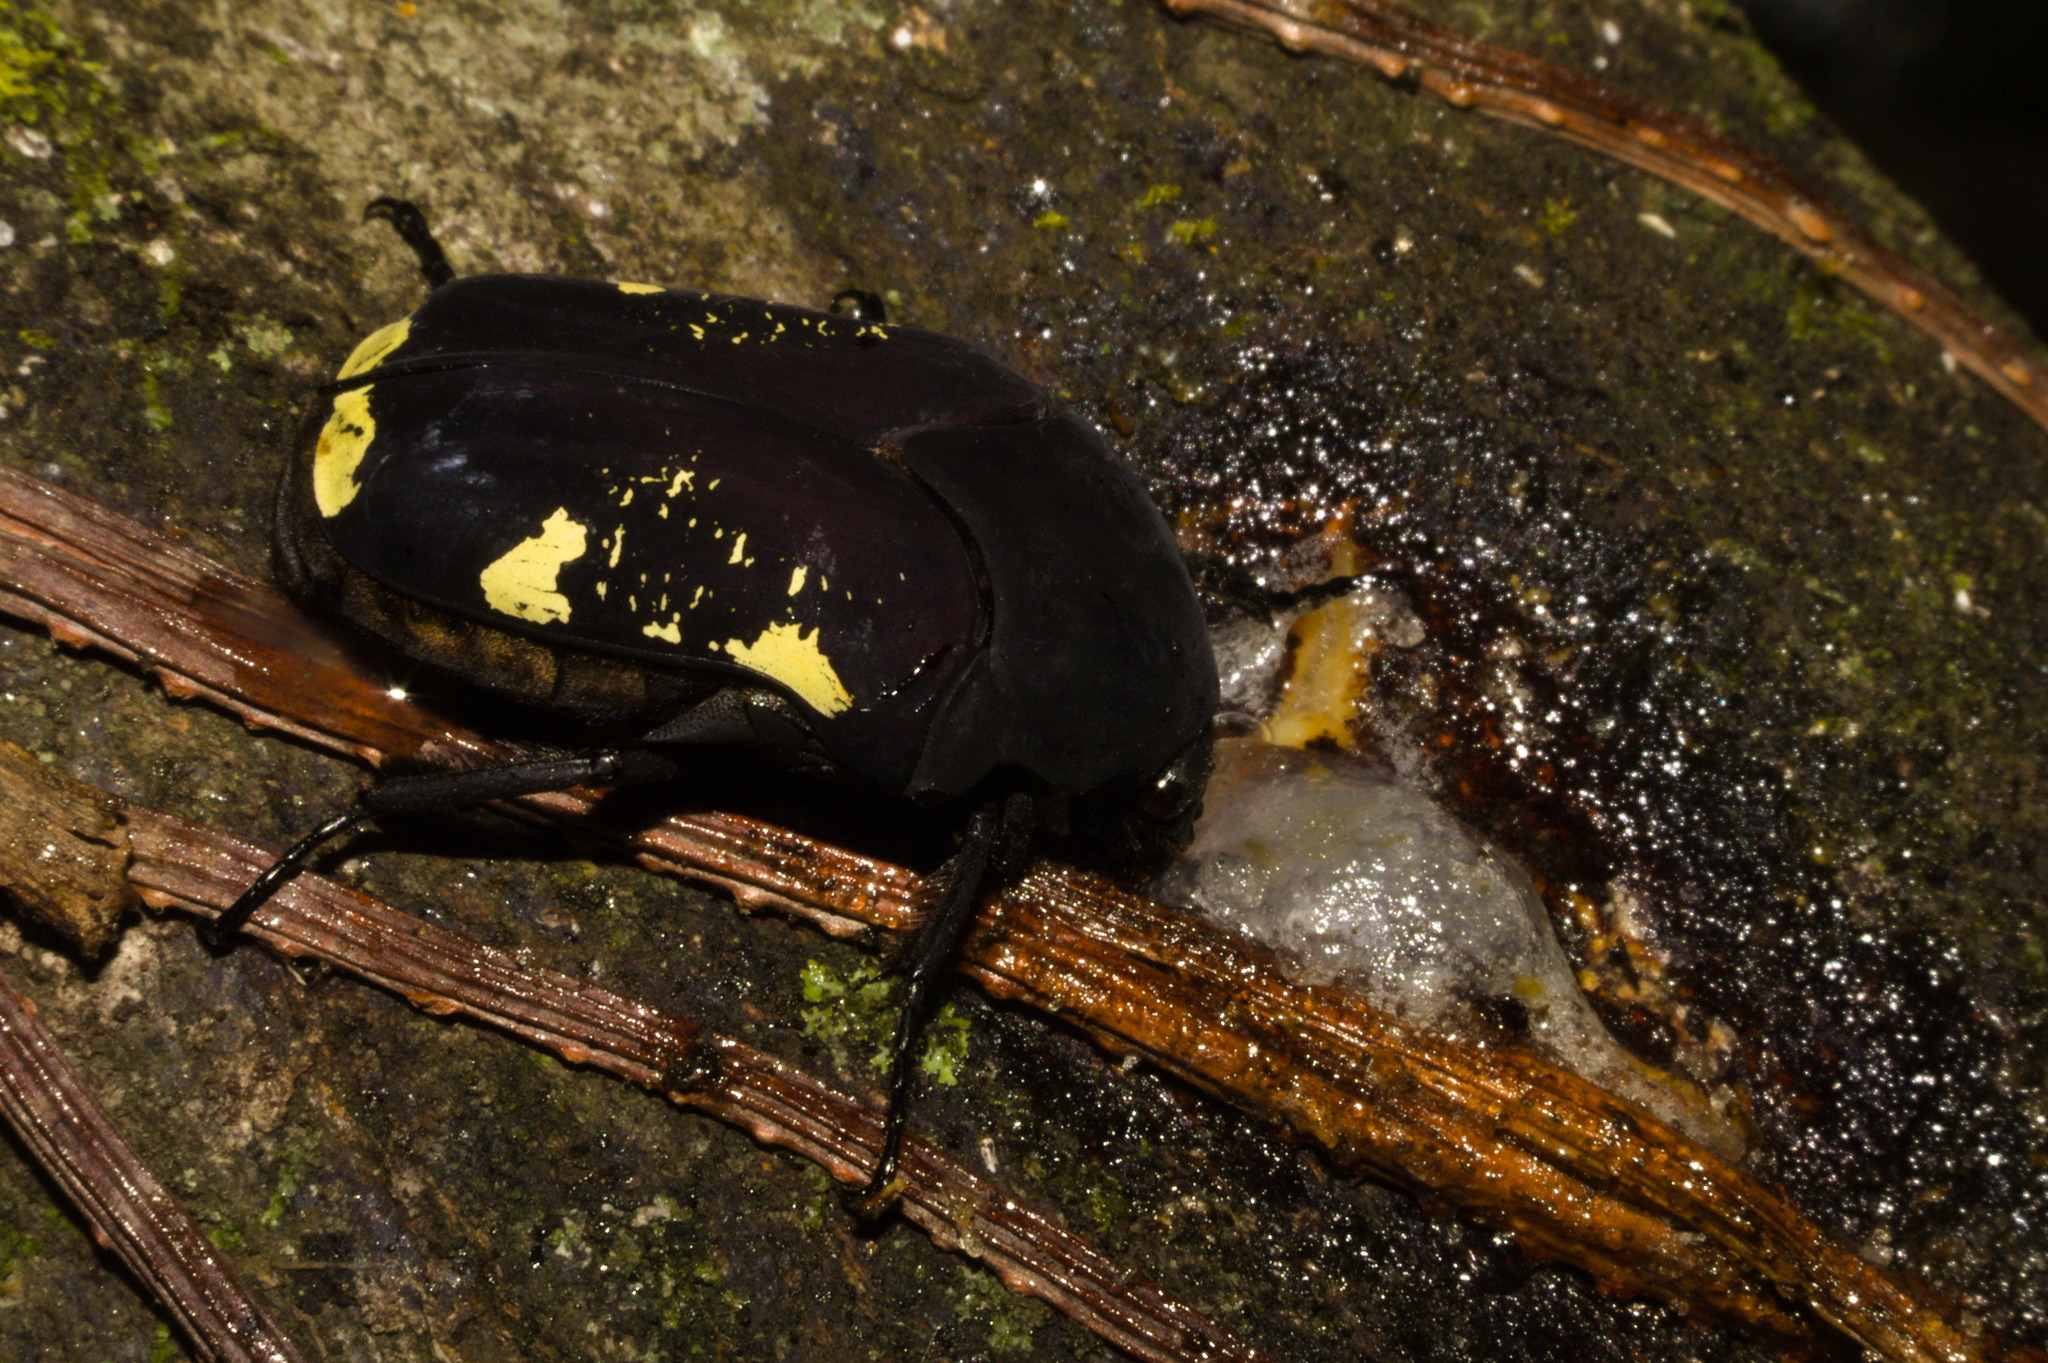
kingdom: Animalia
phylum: Arthropoda
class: Insecta
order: Coleoptera
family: Scarabaeidae
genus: Gymnetis
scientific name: Gymnetis bomplandi
